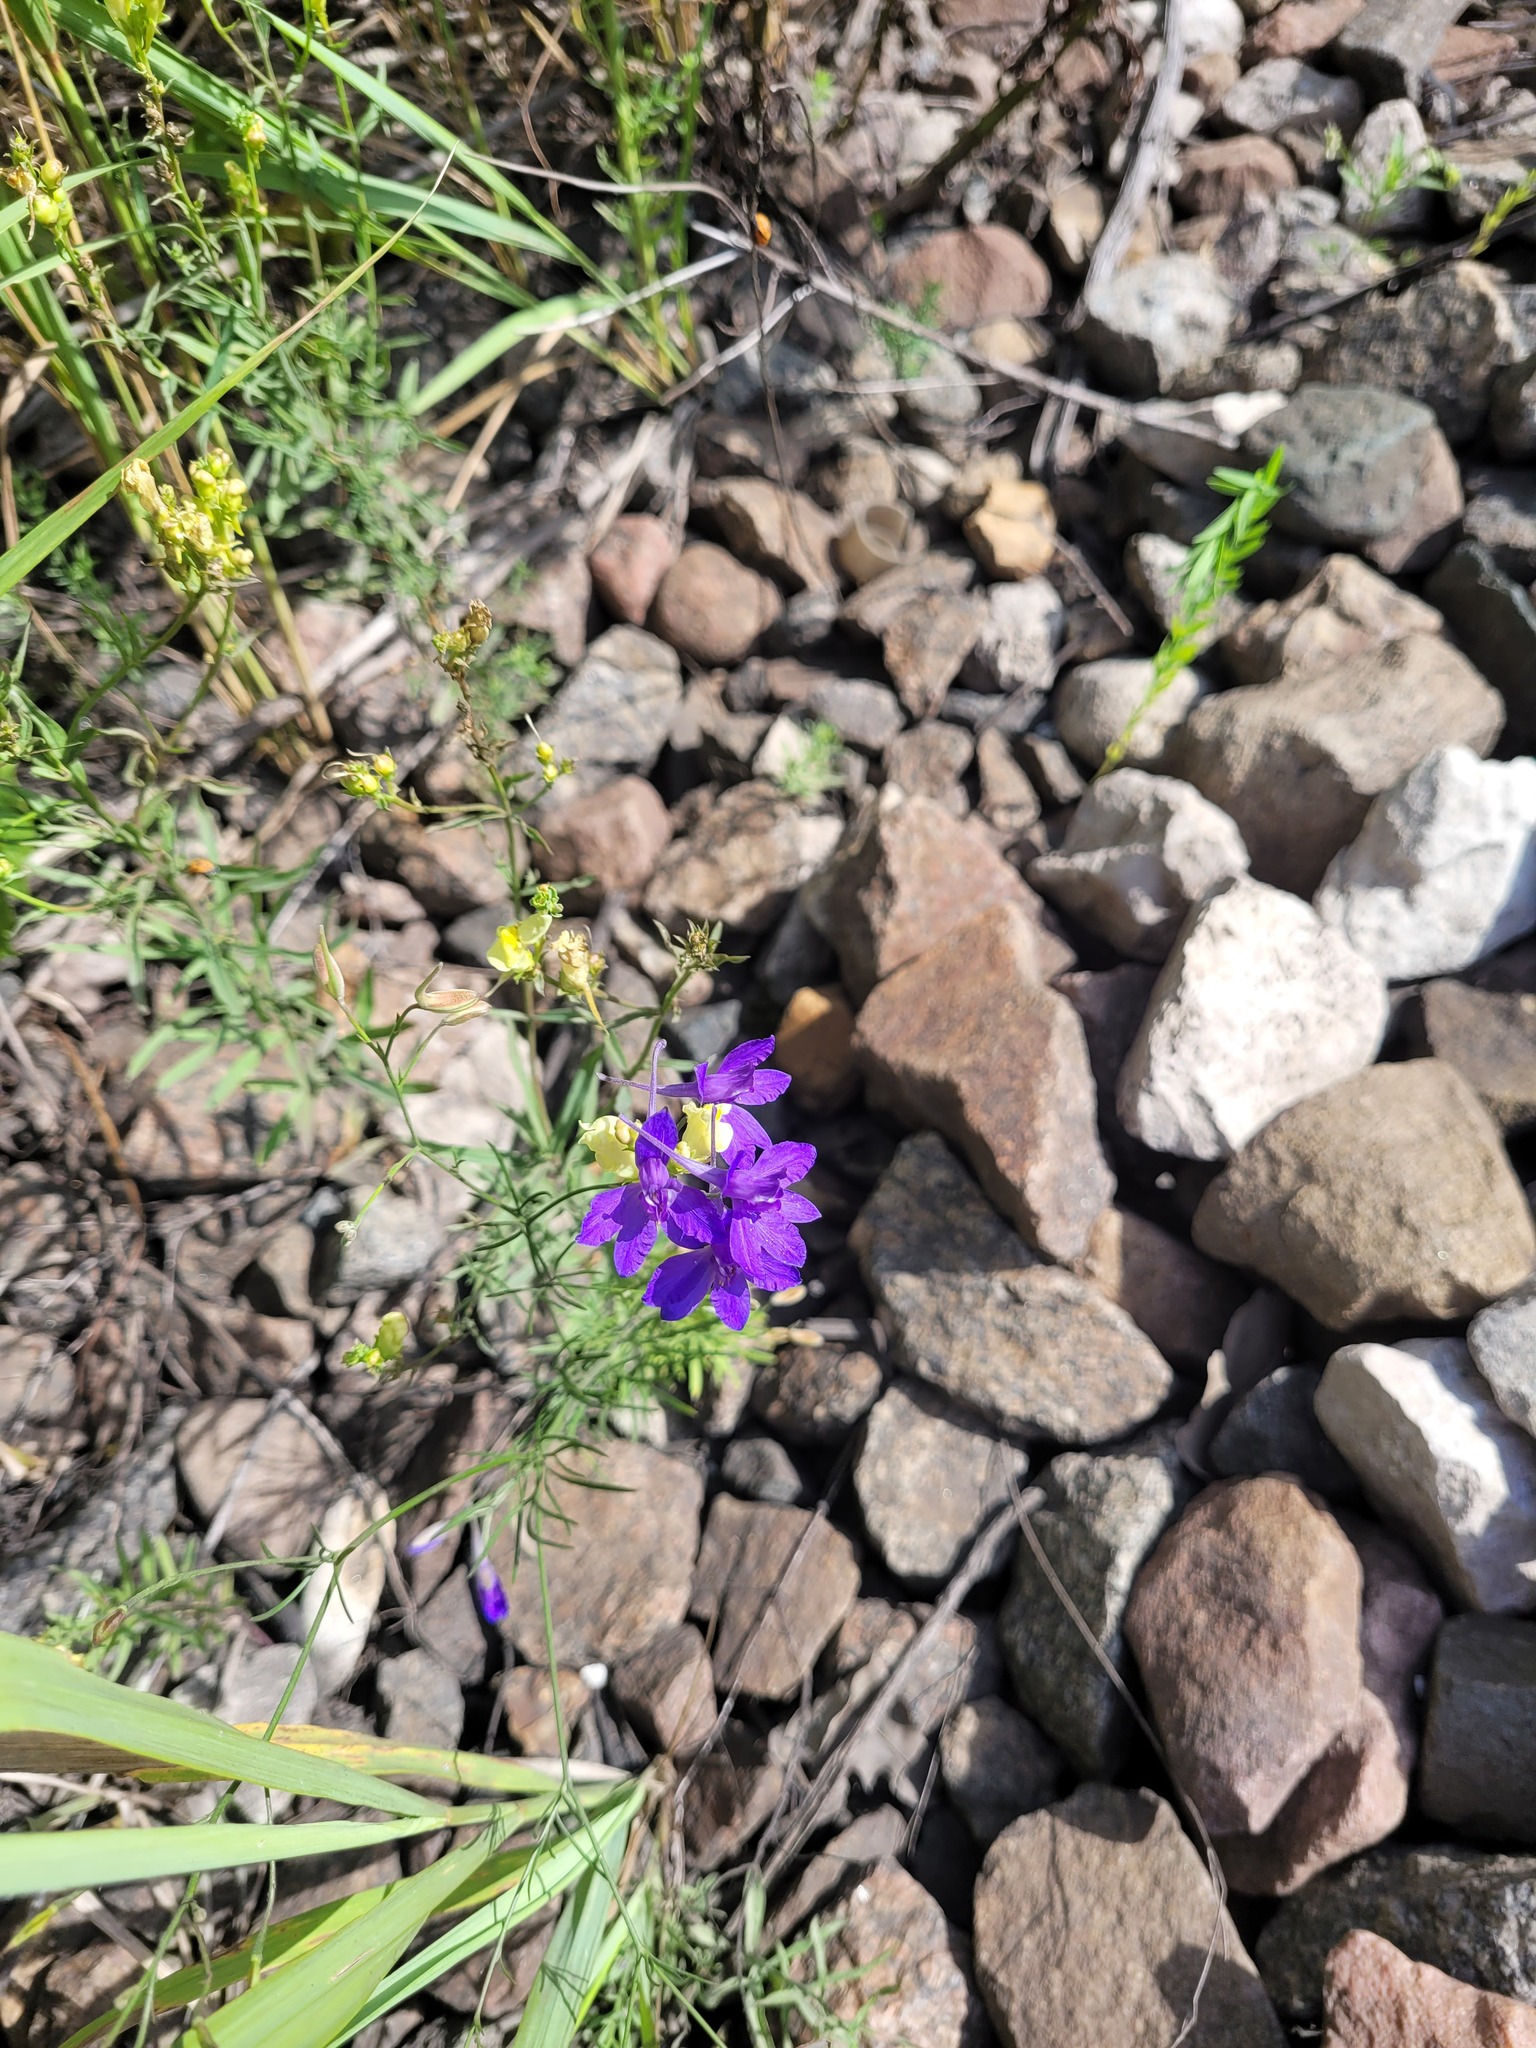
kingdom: Plantae
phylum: Tracheophyta
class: Magnoliopsida
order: Ranunculales
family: Ranunculaceae
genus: Delphinium
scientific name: Delphinium consolida
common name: Branching larkspur
